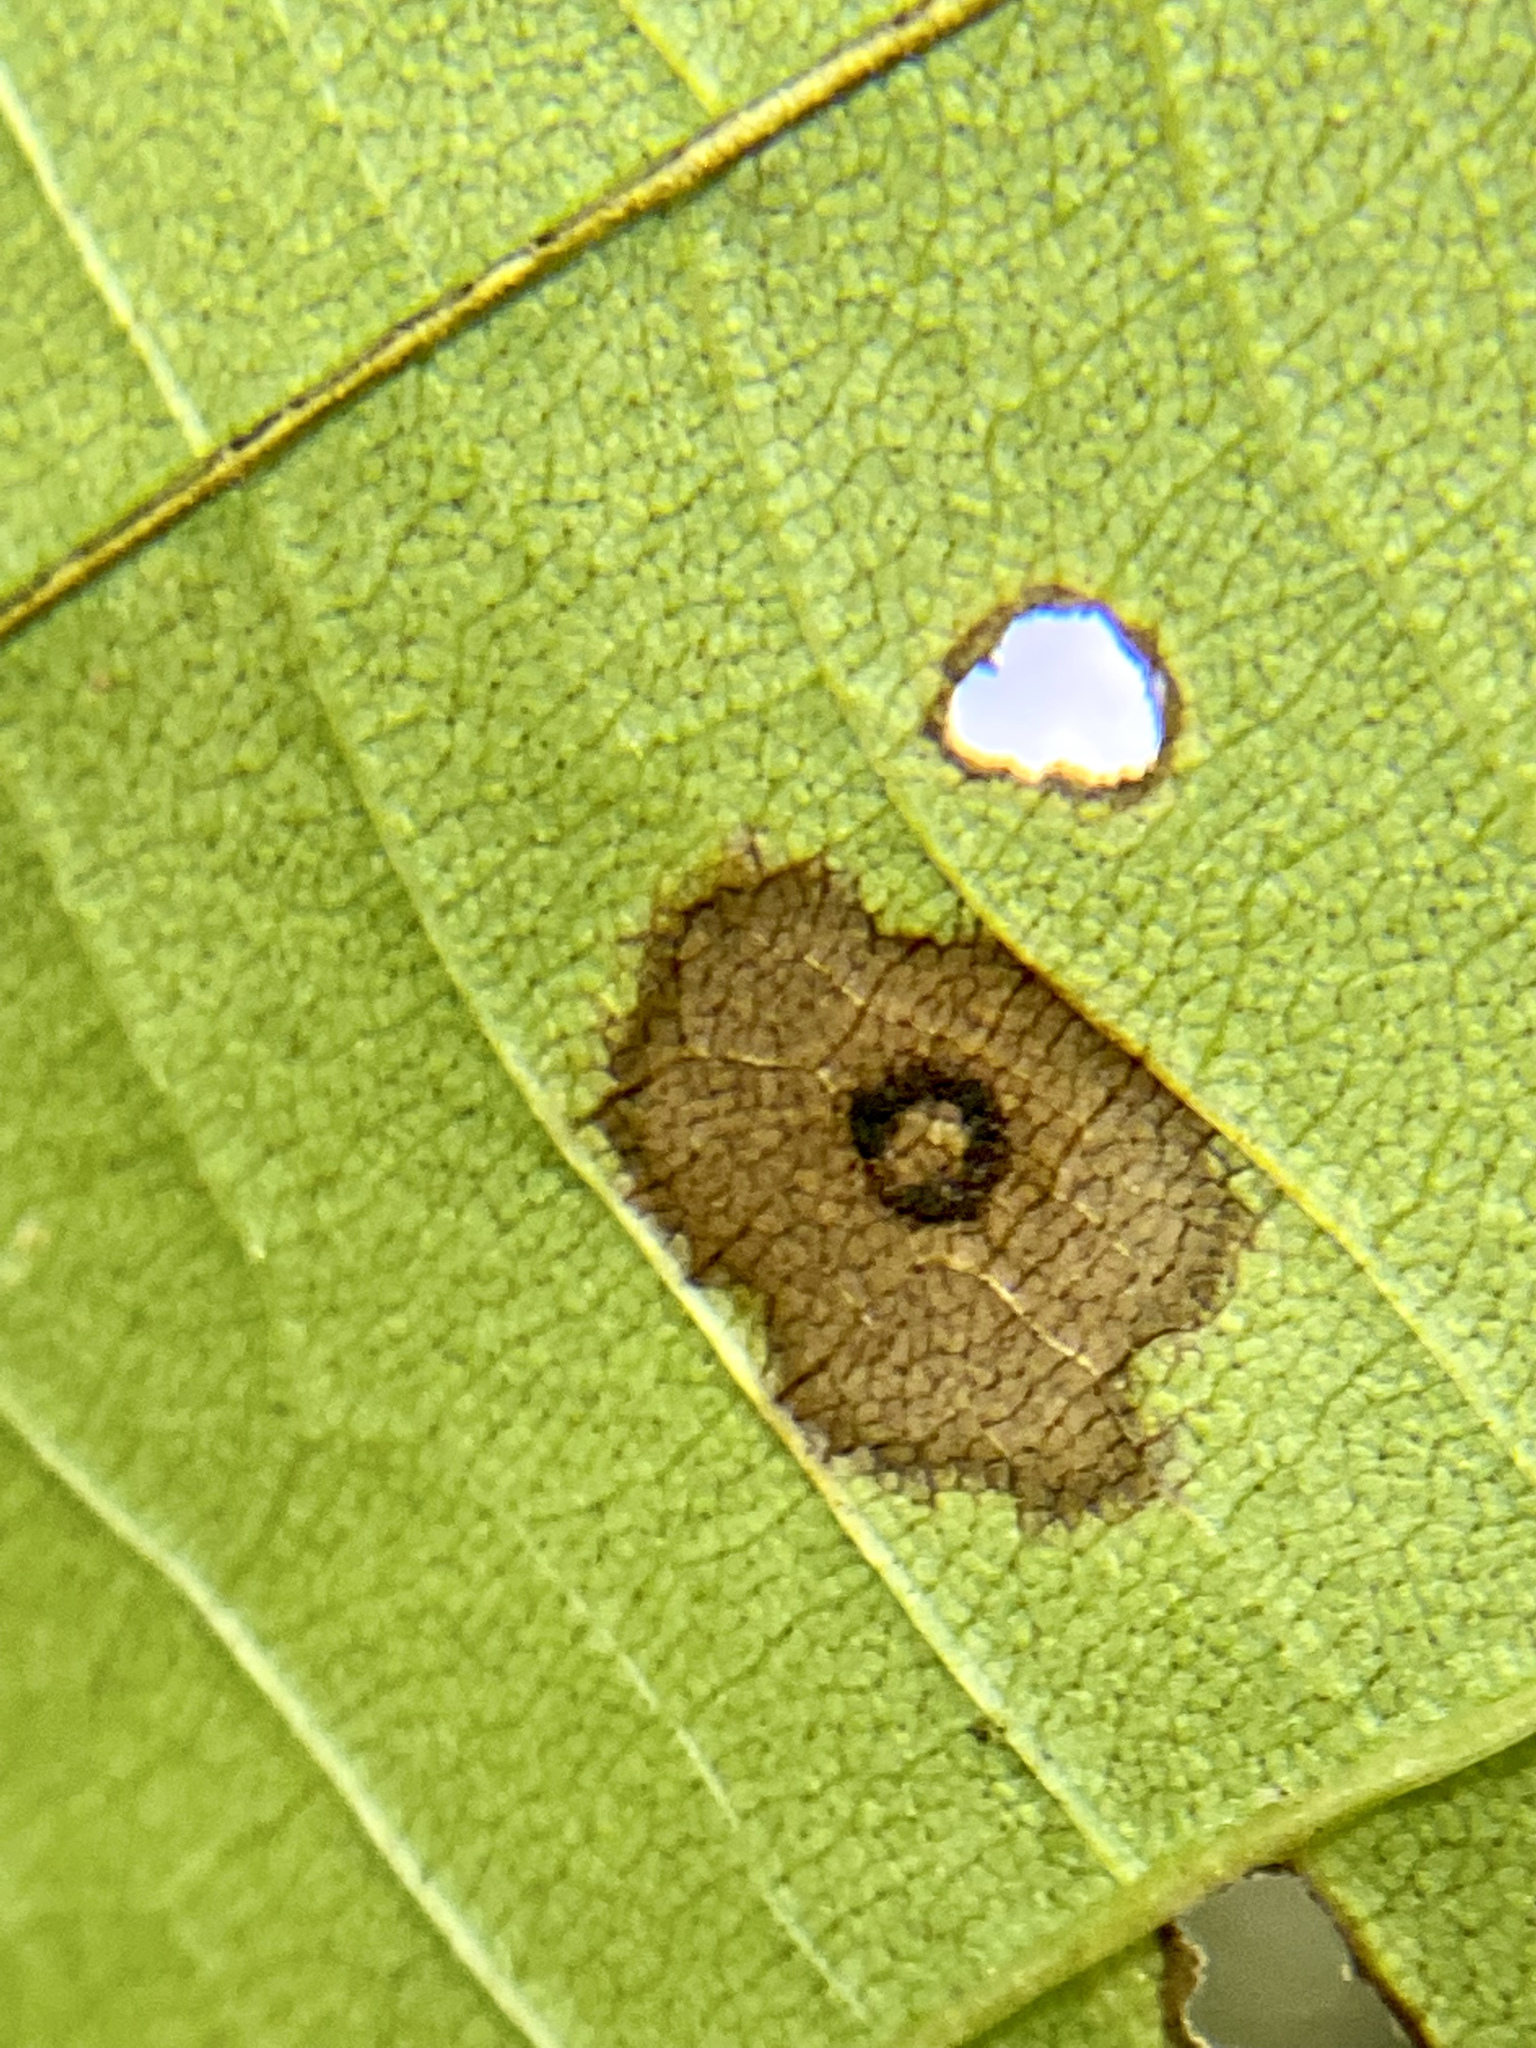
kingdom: Animalia
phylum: Arthropoda
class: Insecta
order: Diptera
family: Cecidomyiidae
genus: Gliaspilota
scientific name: Gliaspilota glutinosa
